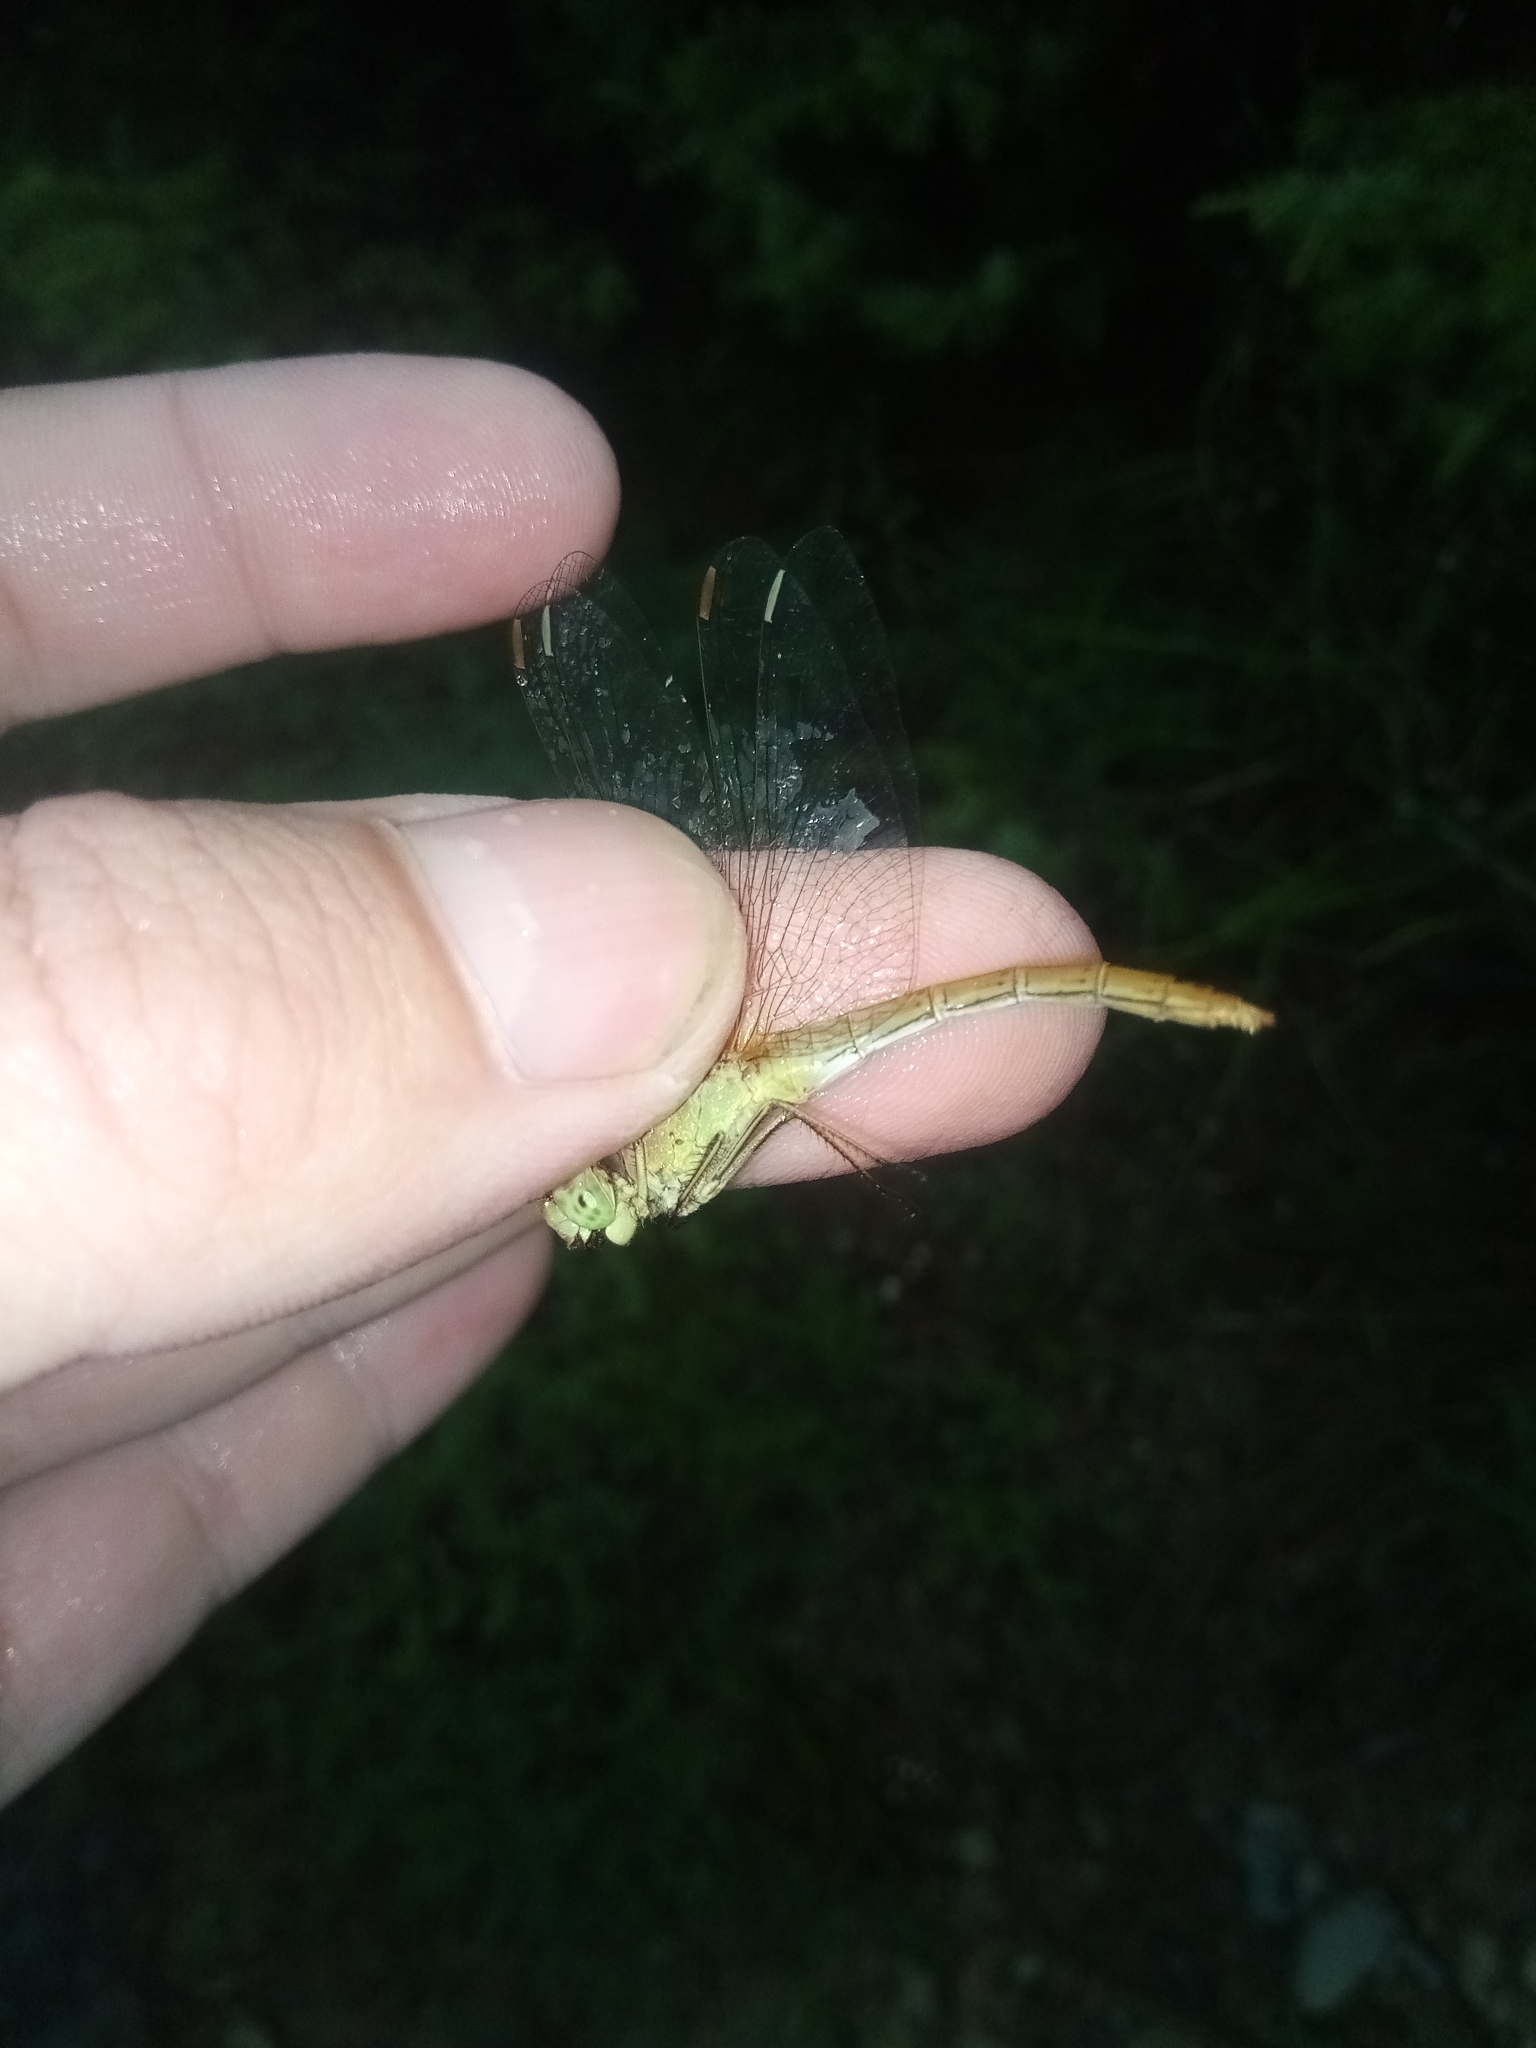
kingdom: Animalia
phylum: Arthropoda
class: Insecta
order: Odonata
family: Libellulidae
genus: Sympetrum
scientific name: Sympetrum meridionale
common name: Southern darter
